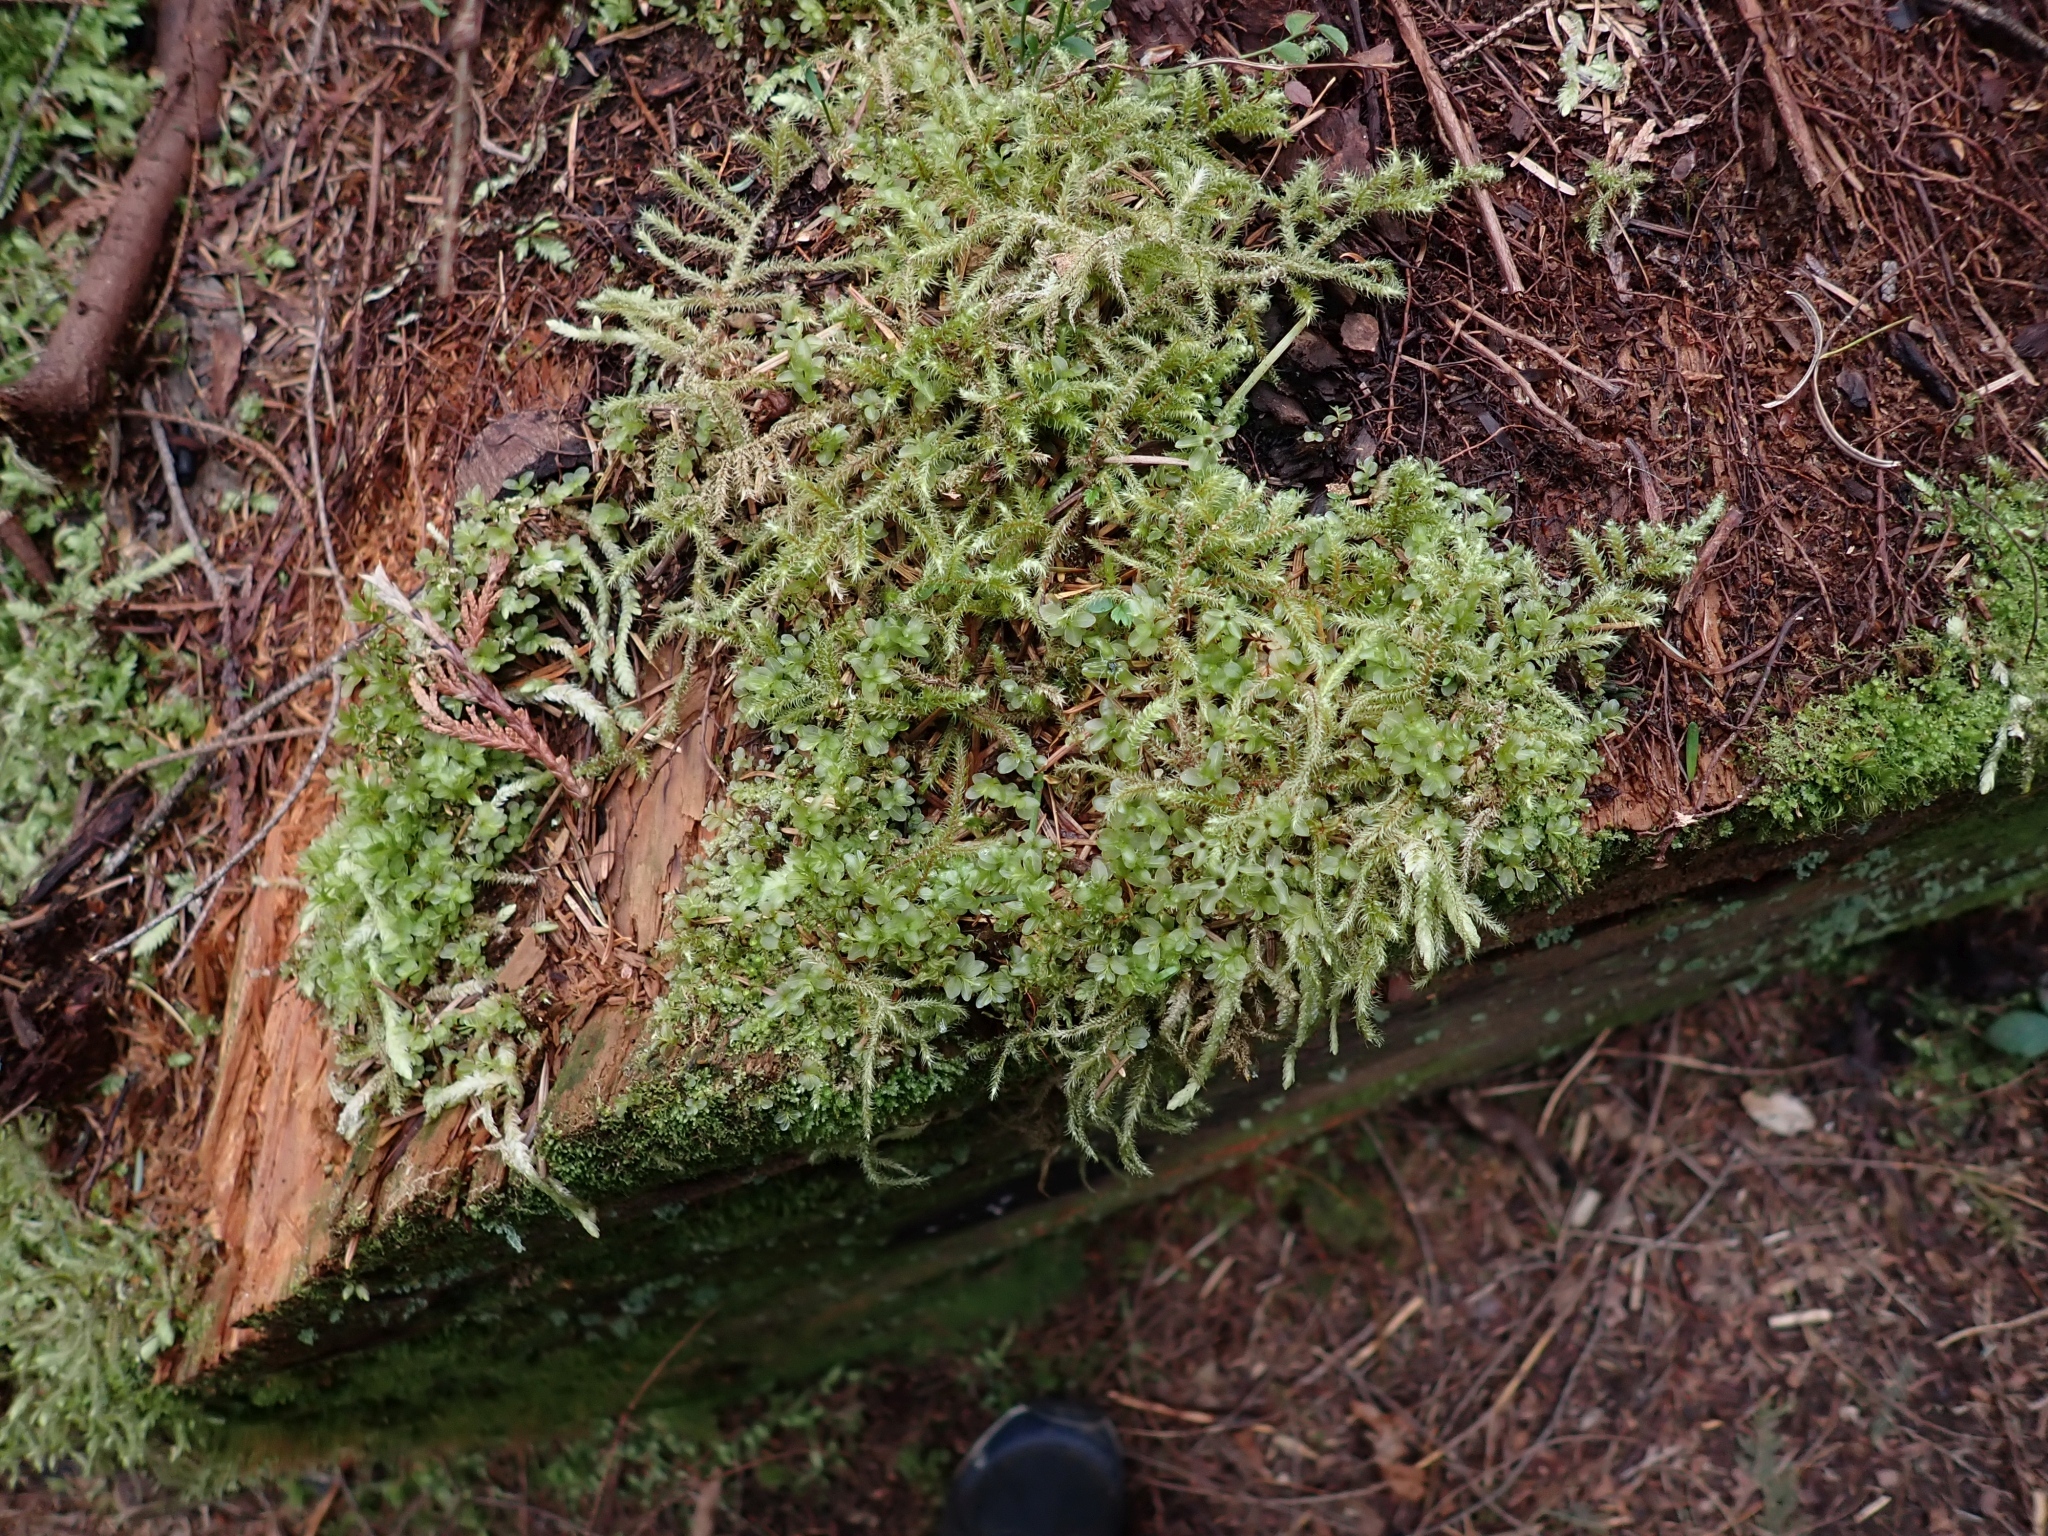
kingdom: Plantae
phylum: Bryophyta
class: Bryopsida
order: Bryales
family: Mniaceae
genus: Rhizomnium
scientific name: Rhizomnium glabrescens
